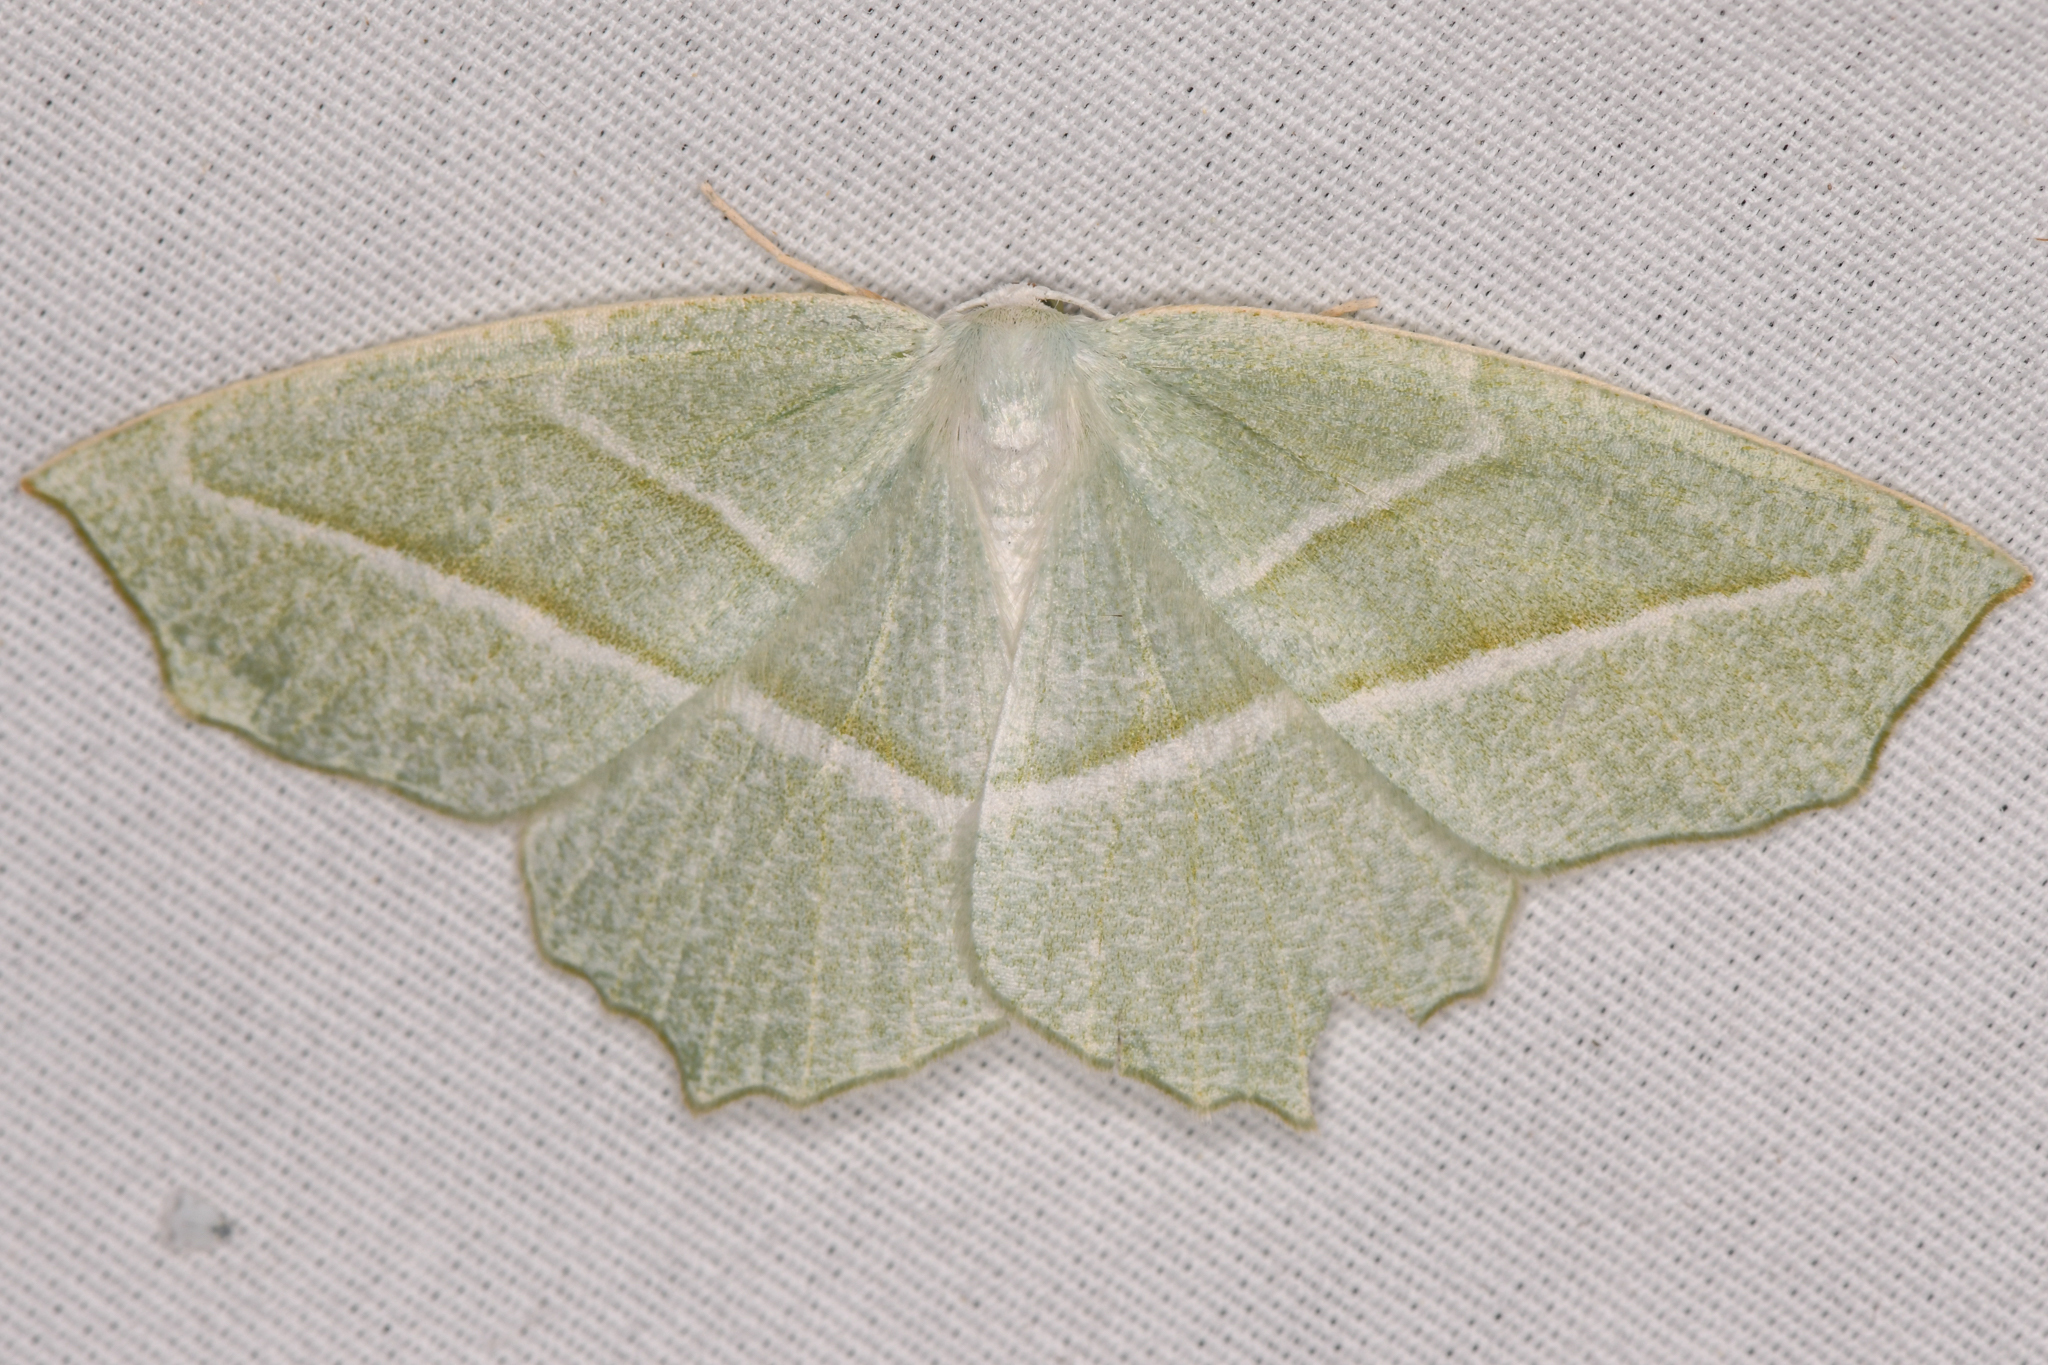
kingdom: Animalia
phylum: Arthropoda
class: Insecta
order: Lepidoptera
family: Geometridae
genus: Campaea
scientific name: Campaea perlata
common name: Fringed looper
